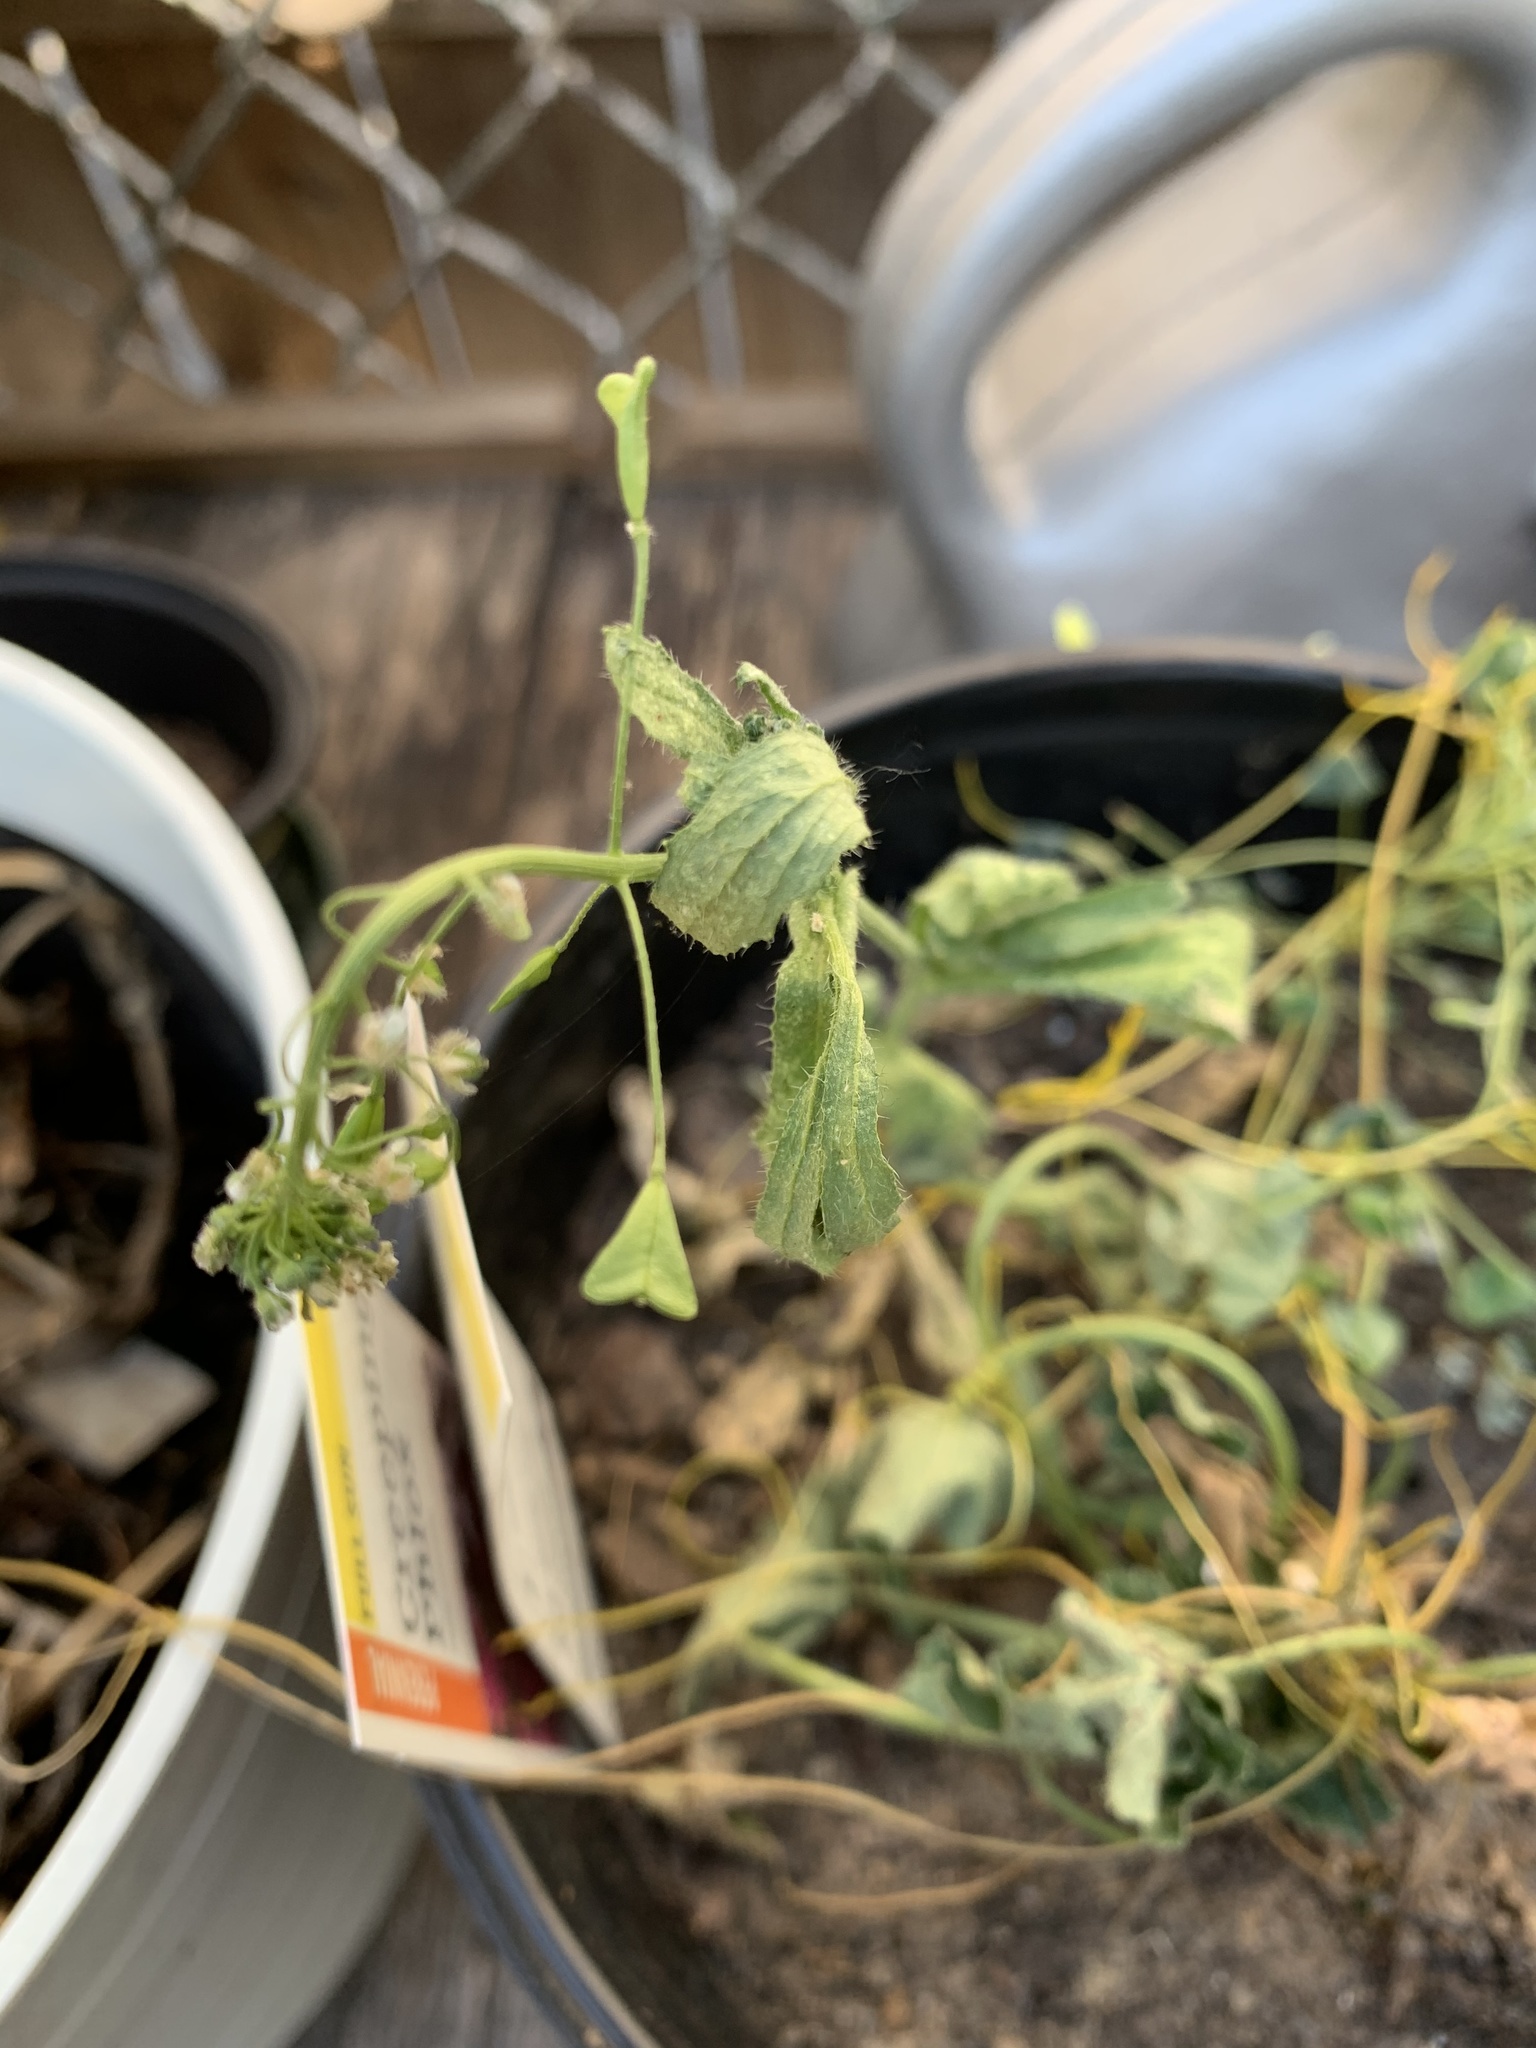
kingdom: Plantae
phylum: Tracheophyta
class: Magnoliopsida
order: Brassicales
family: Brassicaceae
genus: Capsella
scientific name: Capsella bursa-pastoris
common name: Shepherd's purse
